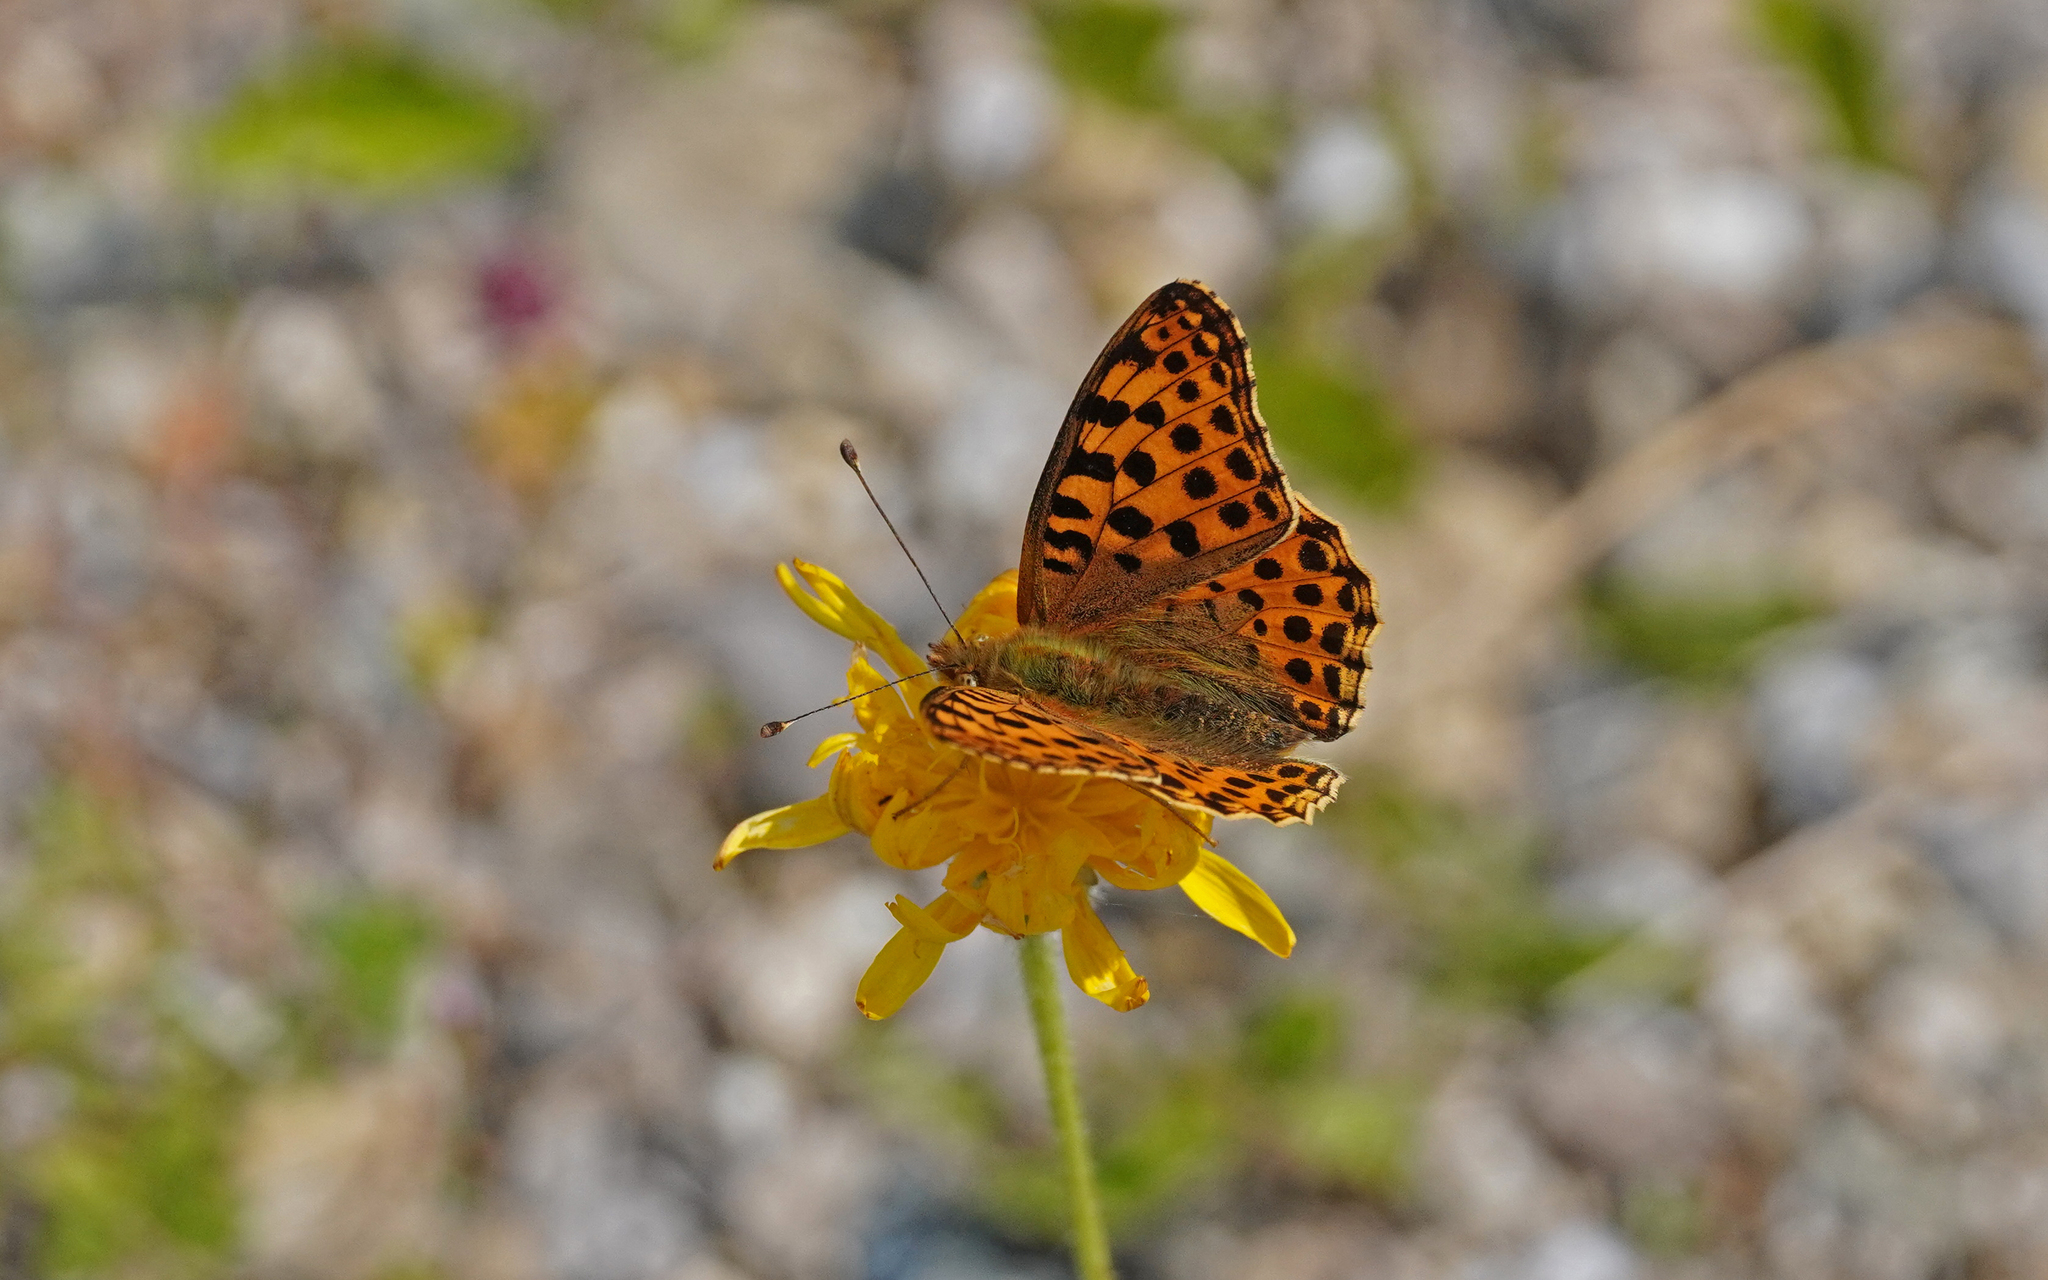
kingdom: Animalia
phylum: Arthropoda
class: Insecta
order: Lepidoptera
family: Nymphalidae
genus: Issoria
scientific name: Issoria lathonia
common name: Queen of spain fritillary
